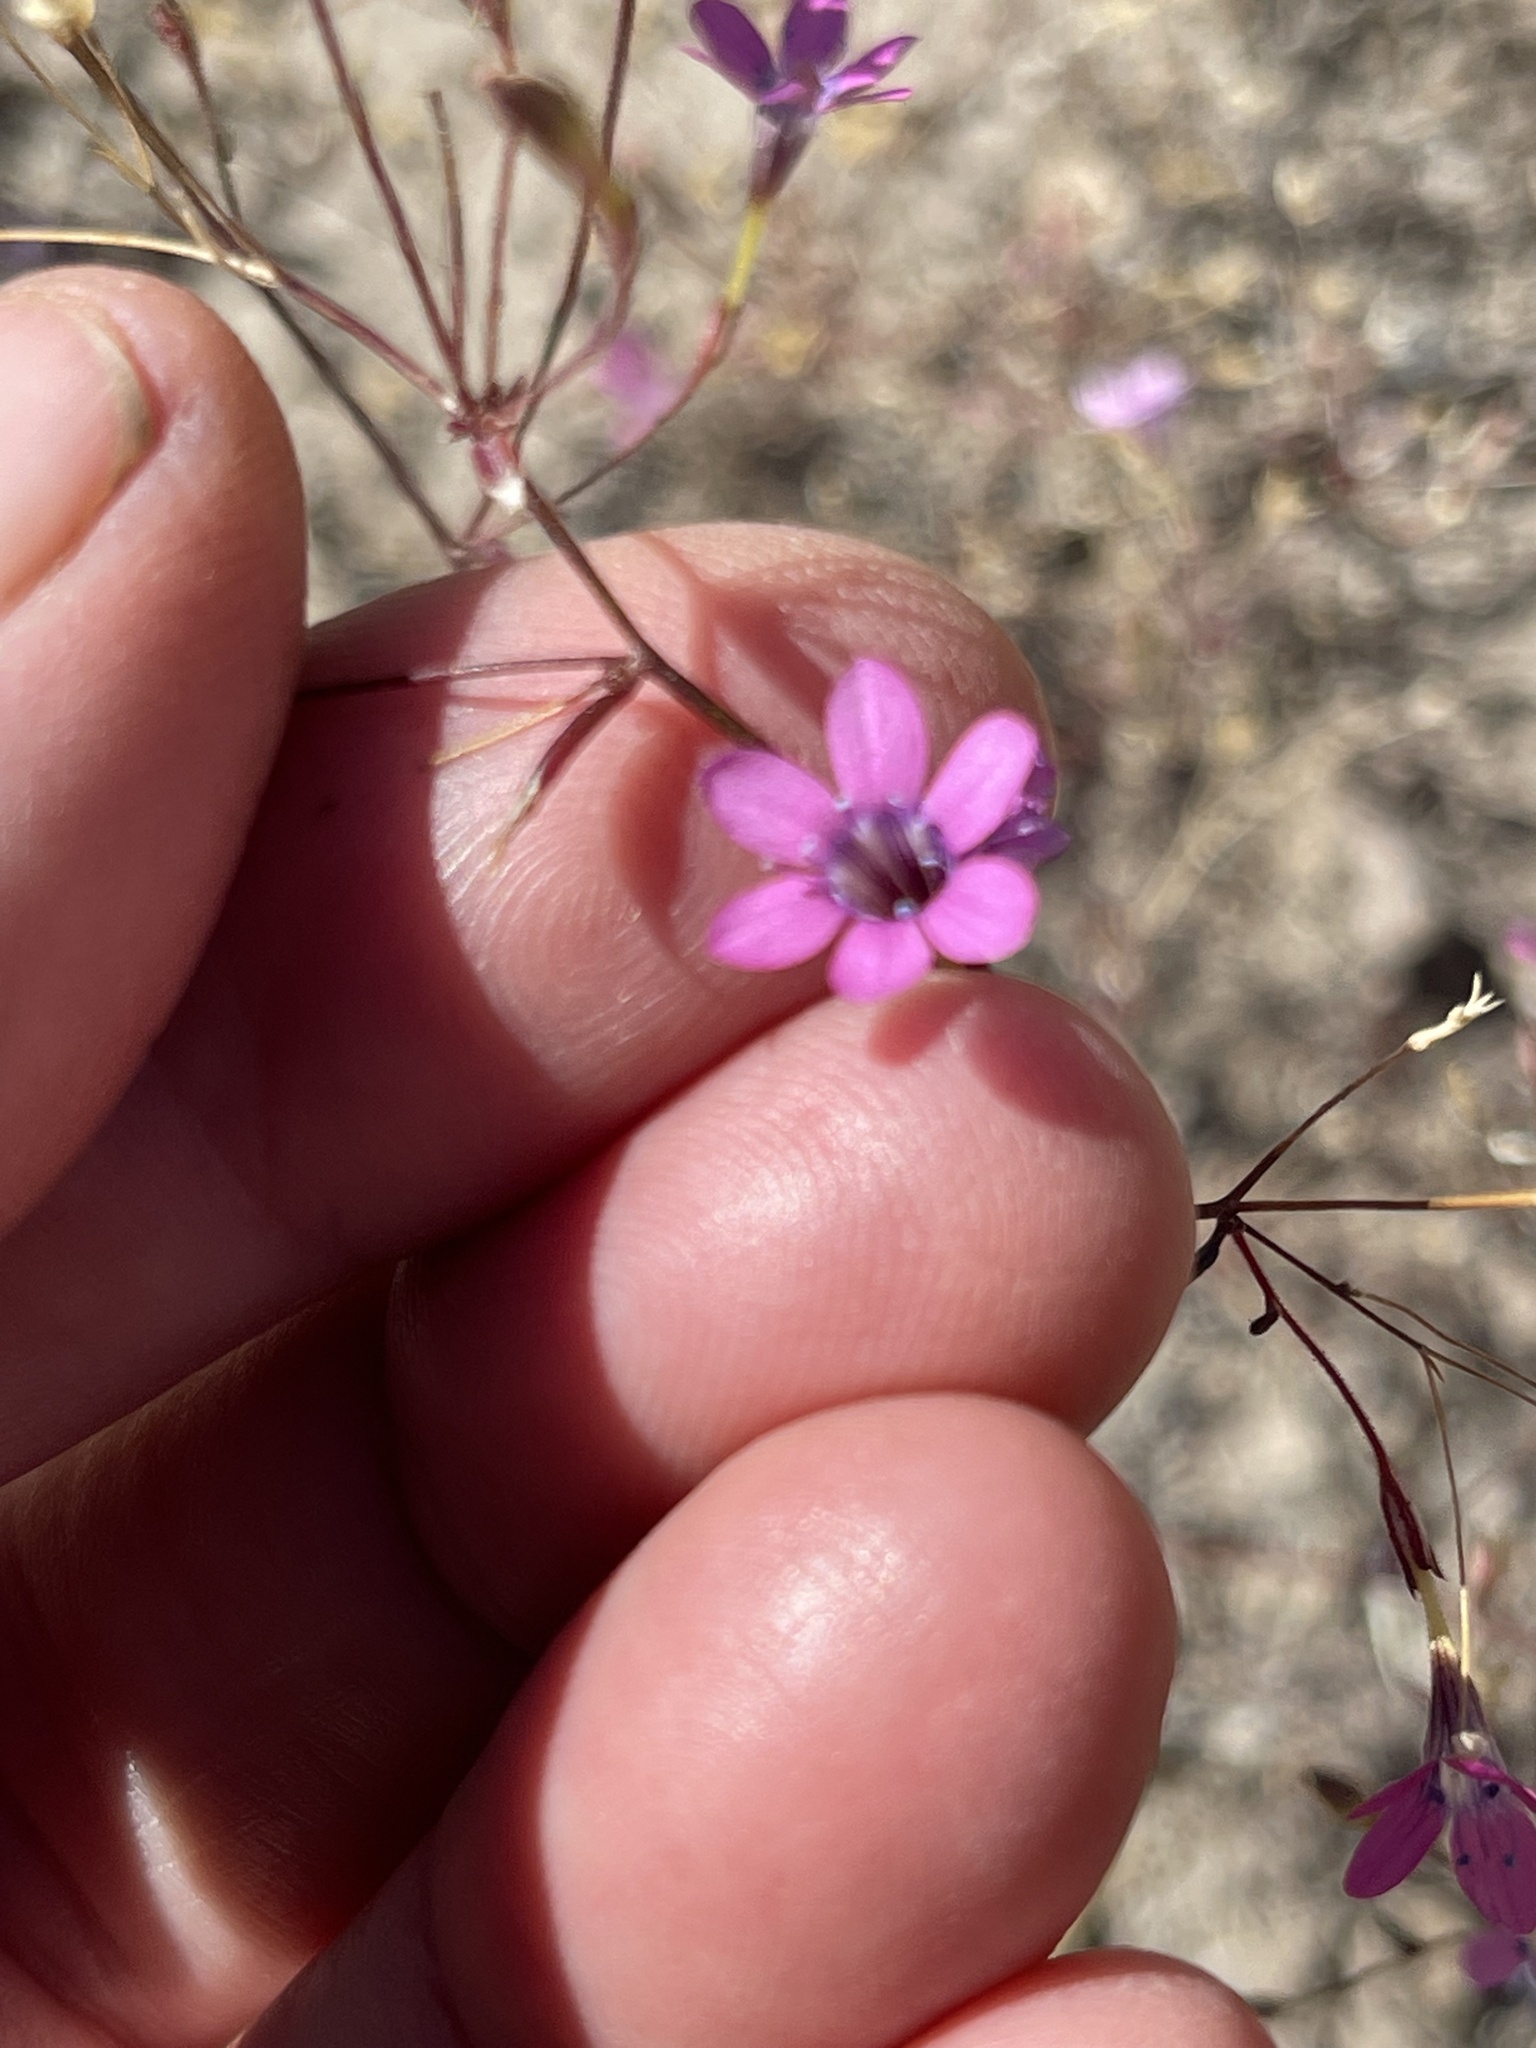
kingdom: Plantae
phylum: Tracheophyta
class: Magnoliopsida
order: Ericales
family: Polemoniaceae
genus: Navarretia
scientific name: Navarretia leptalea
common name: Bridges' pincushionplant
